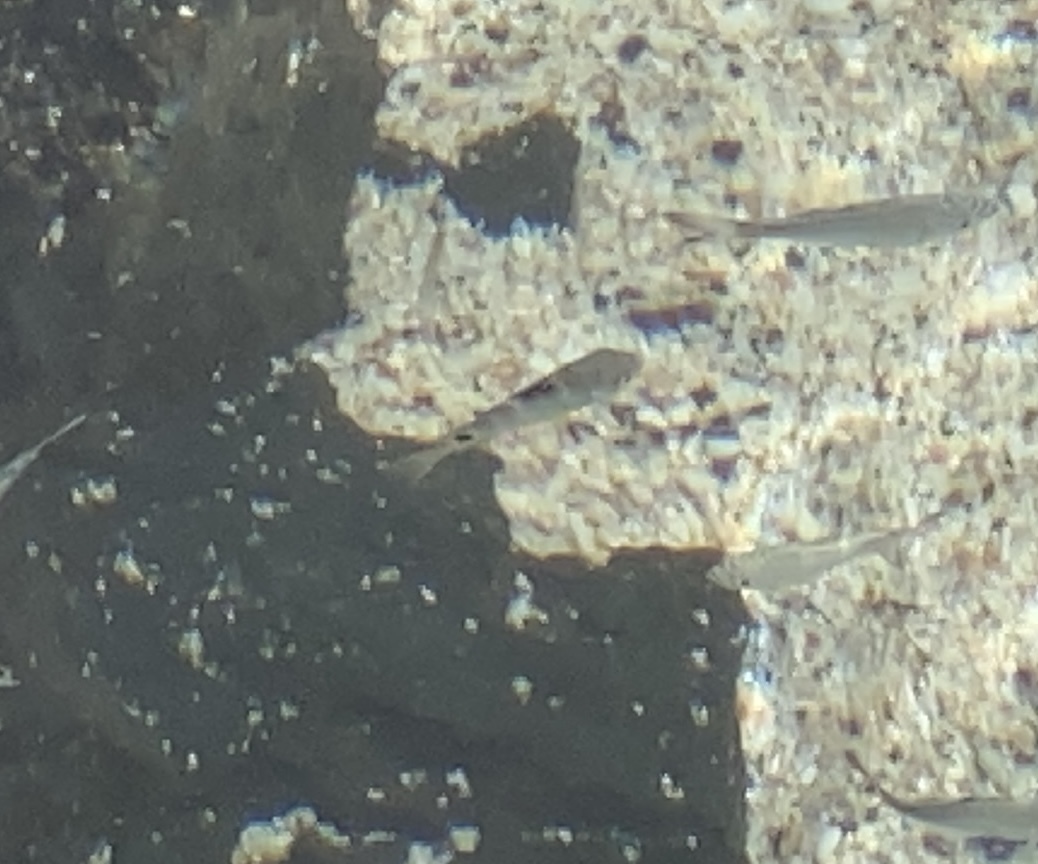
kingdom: Animalia
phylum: Chordata
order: Perciformes
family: Pomacentridae
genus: Abudefduf
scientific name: Abudefduf sordidus
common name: Blackspot sergeant
